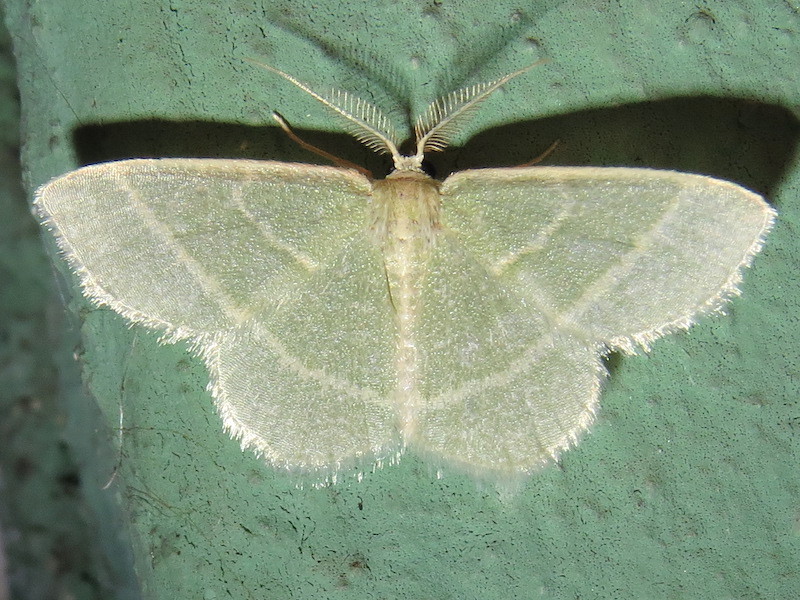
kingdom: Animalia
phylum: Arthropoda
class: Insecta
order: Lepidoptera
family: Geometridae
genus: Chlorochlamys
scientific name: Chlorochlamys chloroleucaria
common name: Blackberry looper
